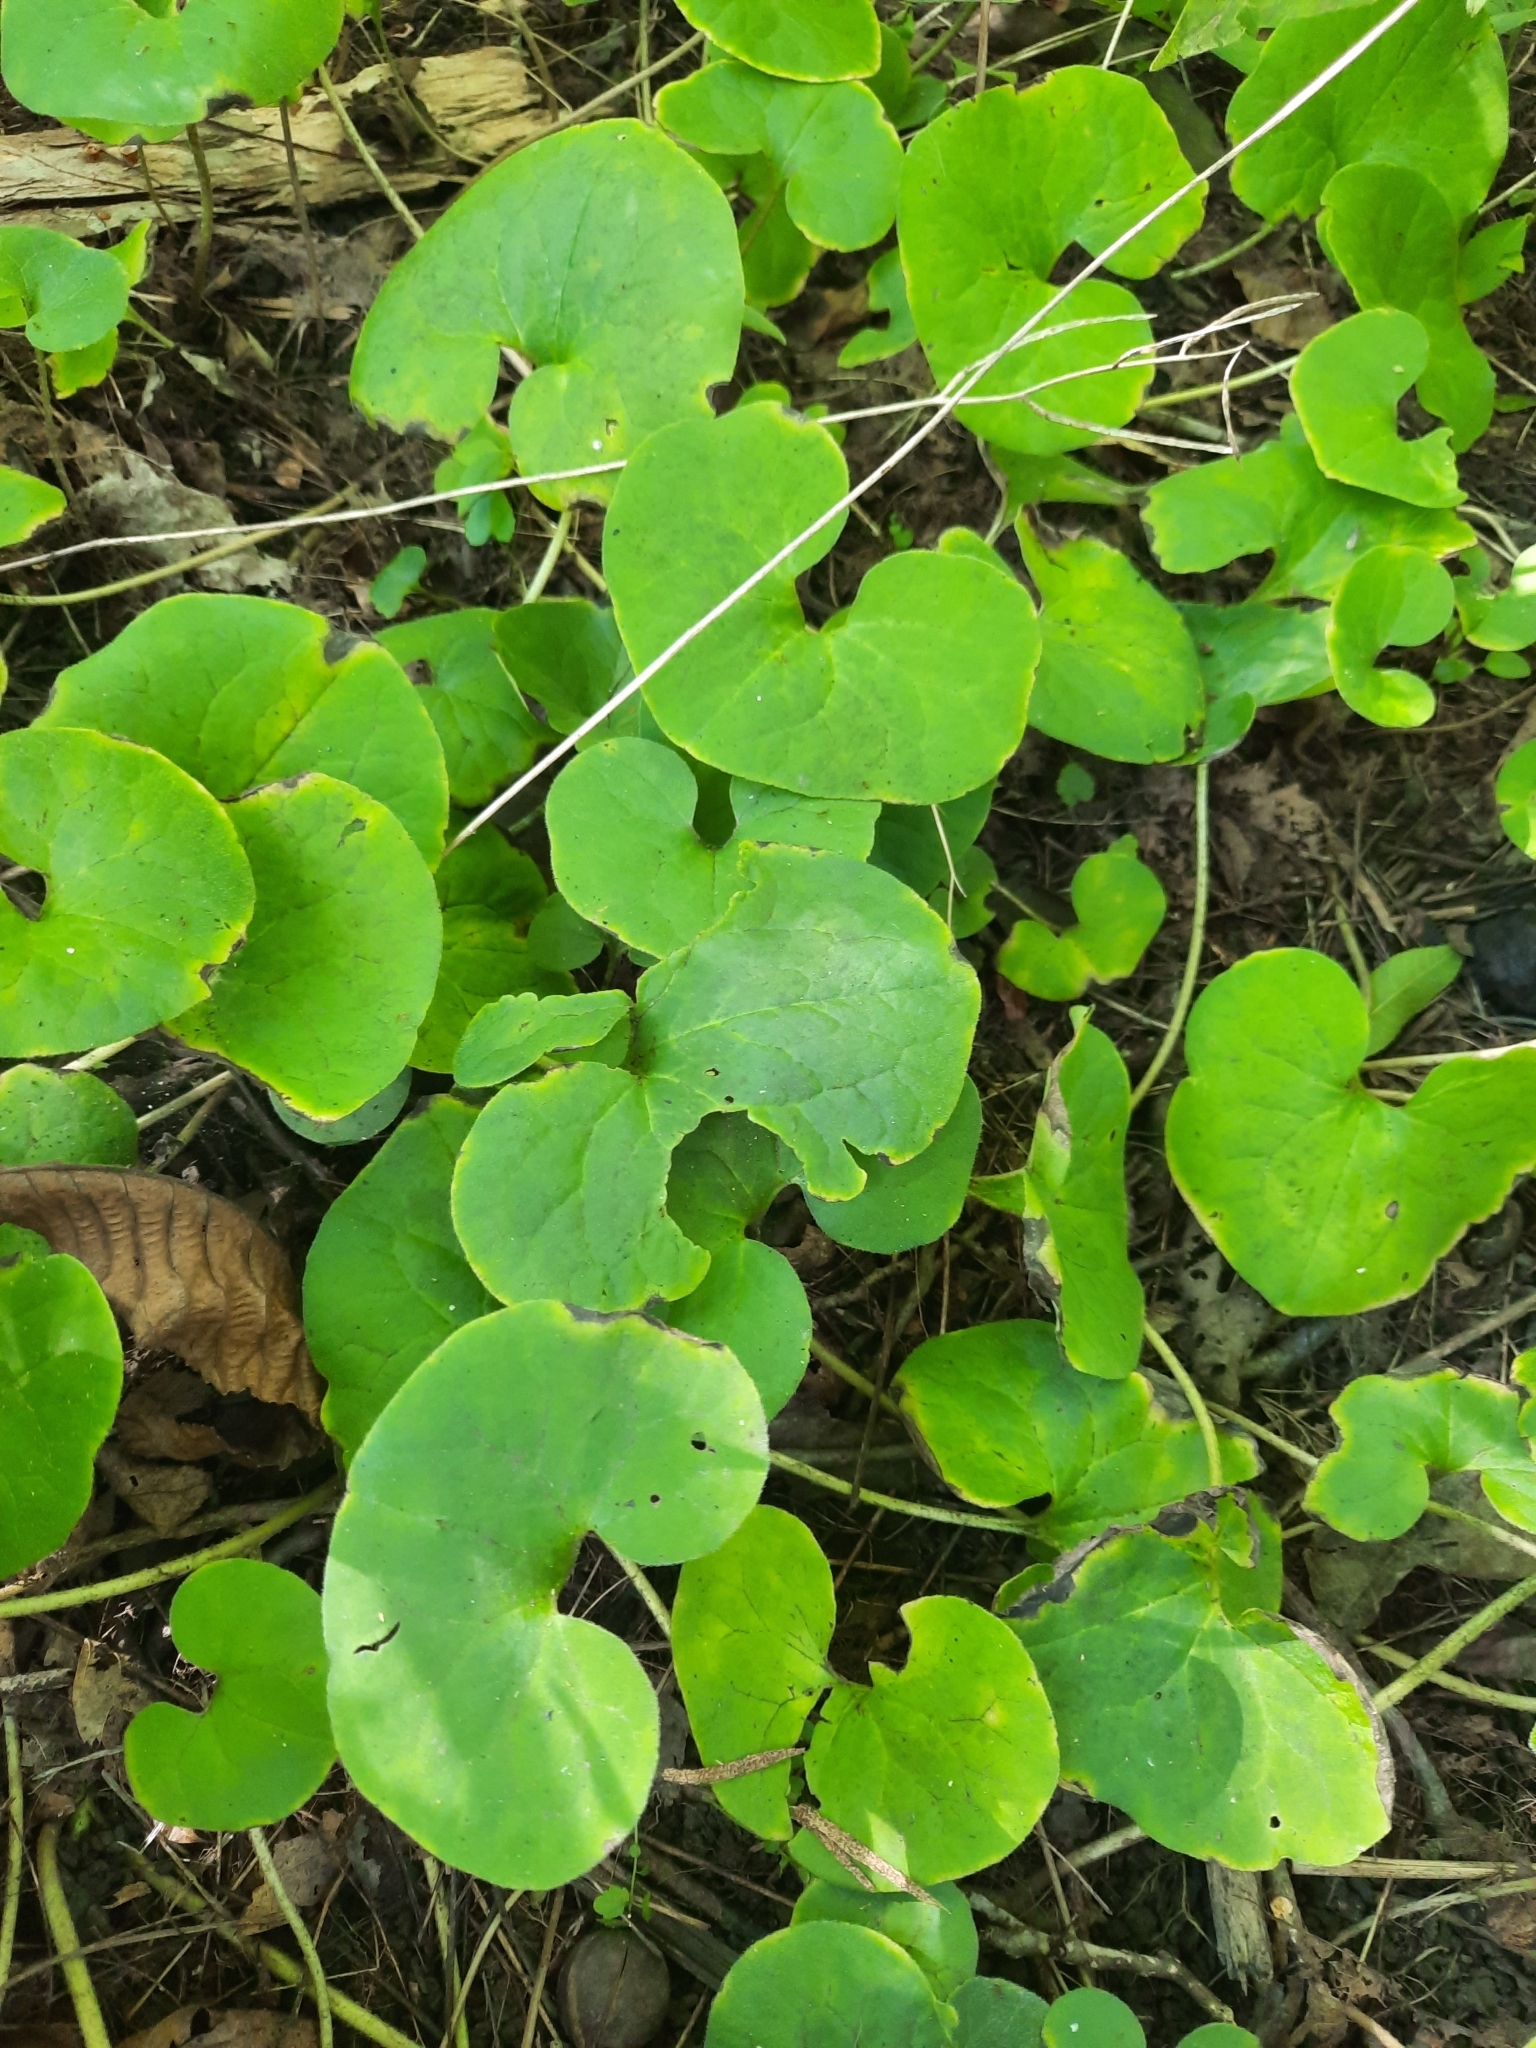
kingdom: Plantae
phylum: Tracheophyta
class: Magnoliopsida
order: Piperales
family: Aristolochiaceae
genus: Asarum
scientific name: Asarum canadense
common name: Wild ginger
